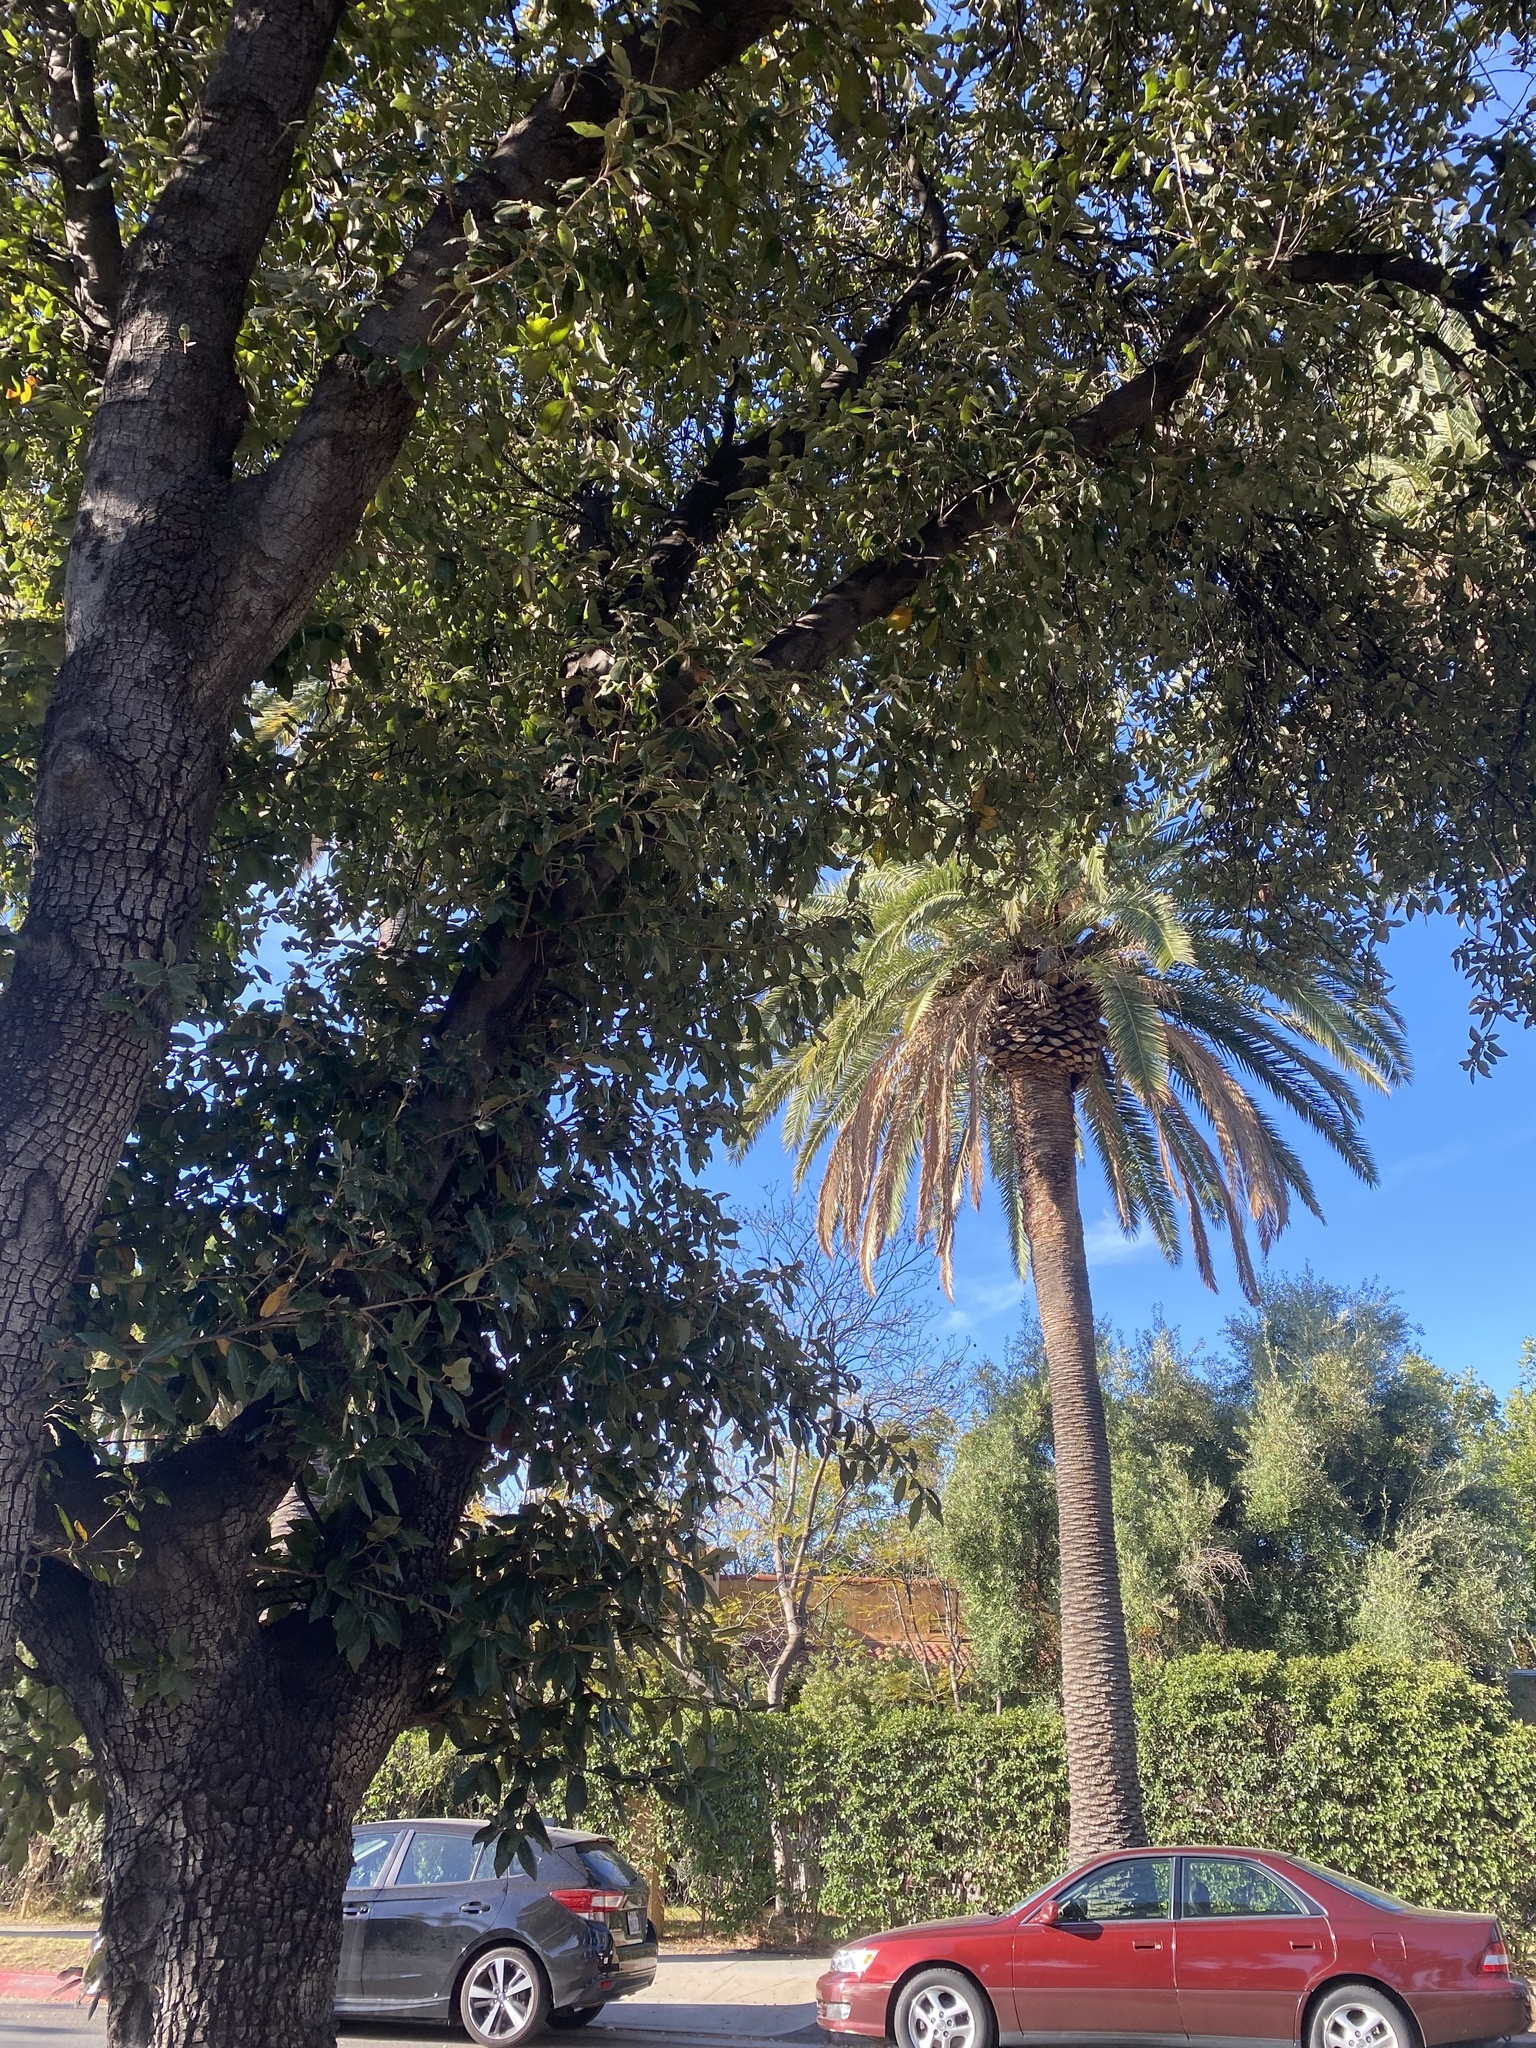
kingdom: Animalia
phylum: Chordata
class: Mammalia
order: Rodentia
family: Sciuridae
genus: Sciurus
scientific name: Sciurus niger
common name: Fox squirrel
